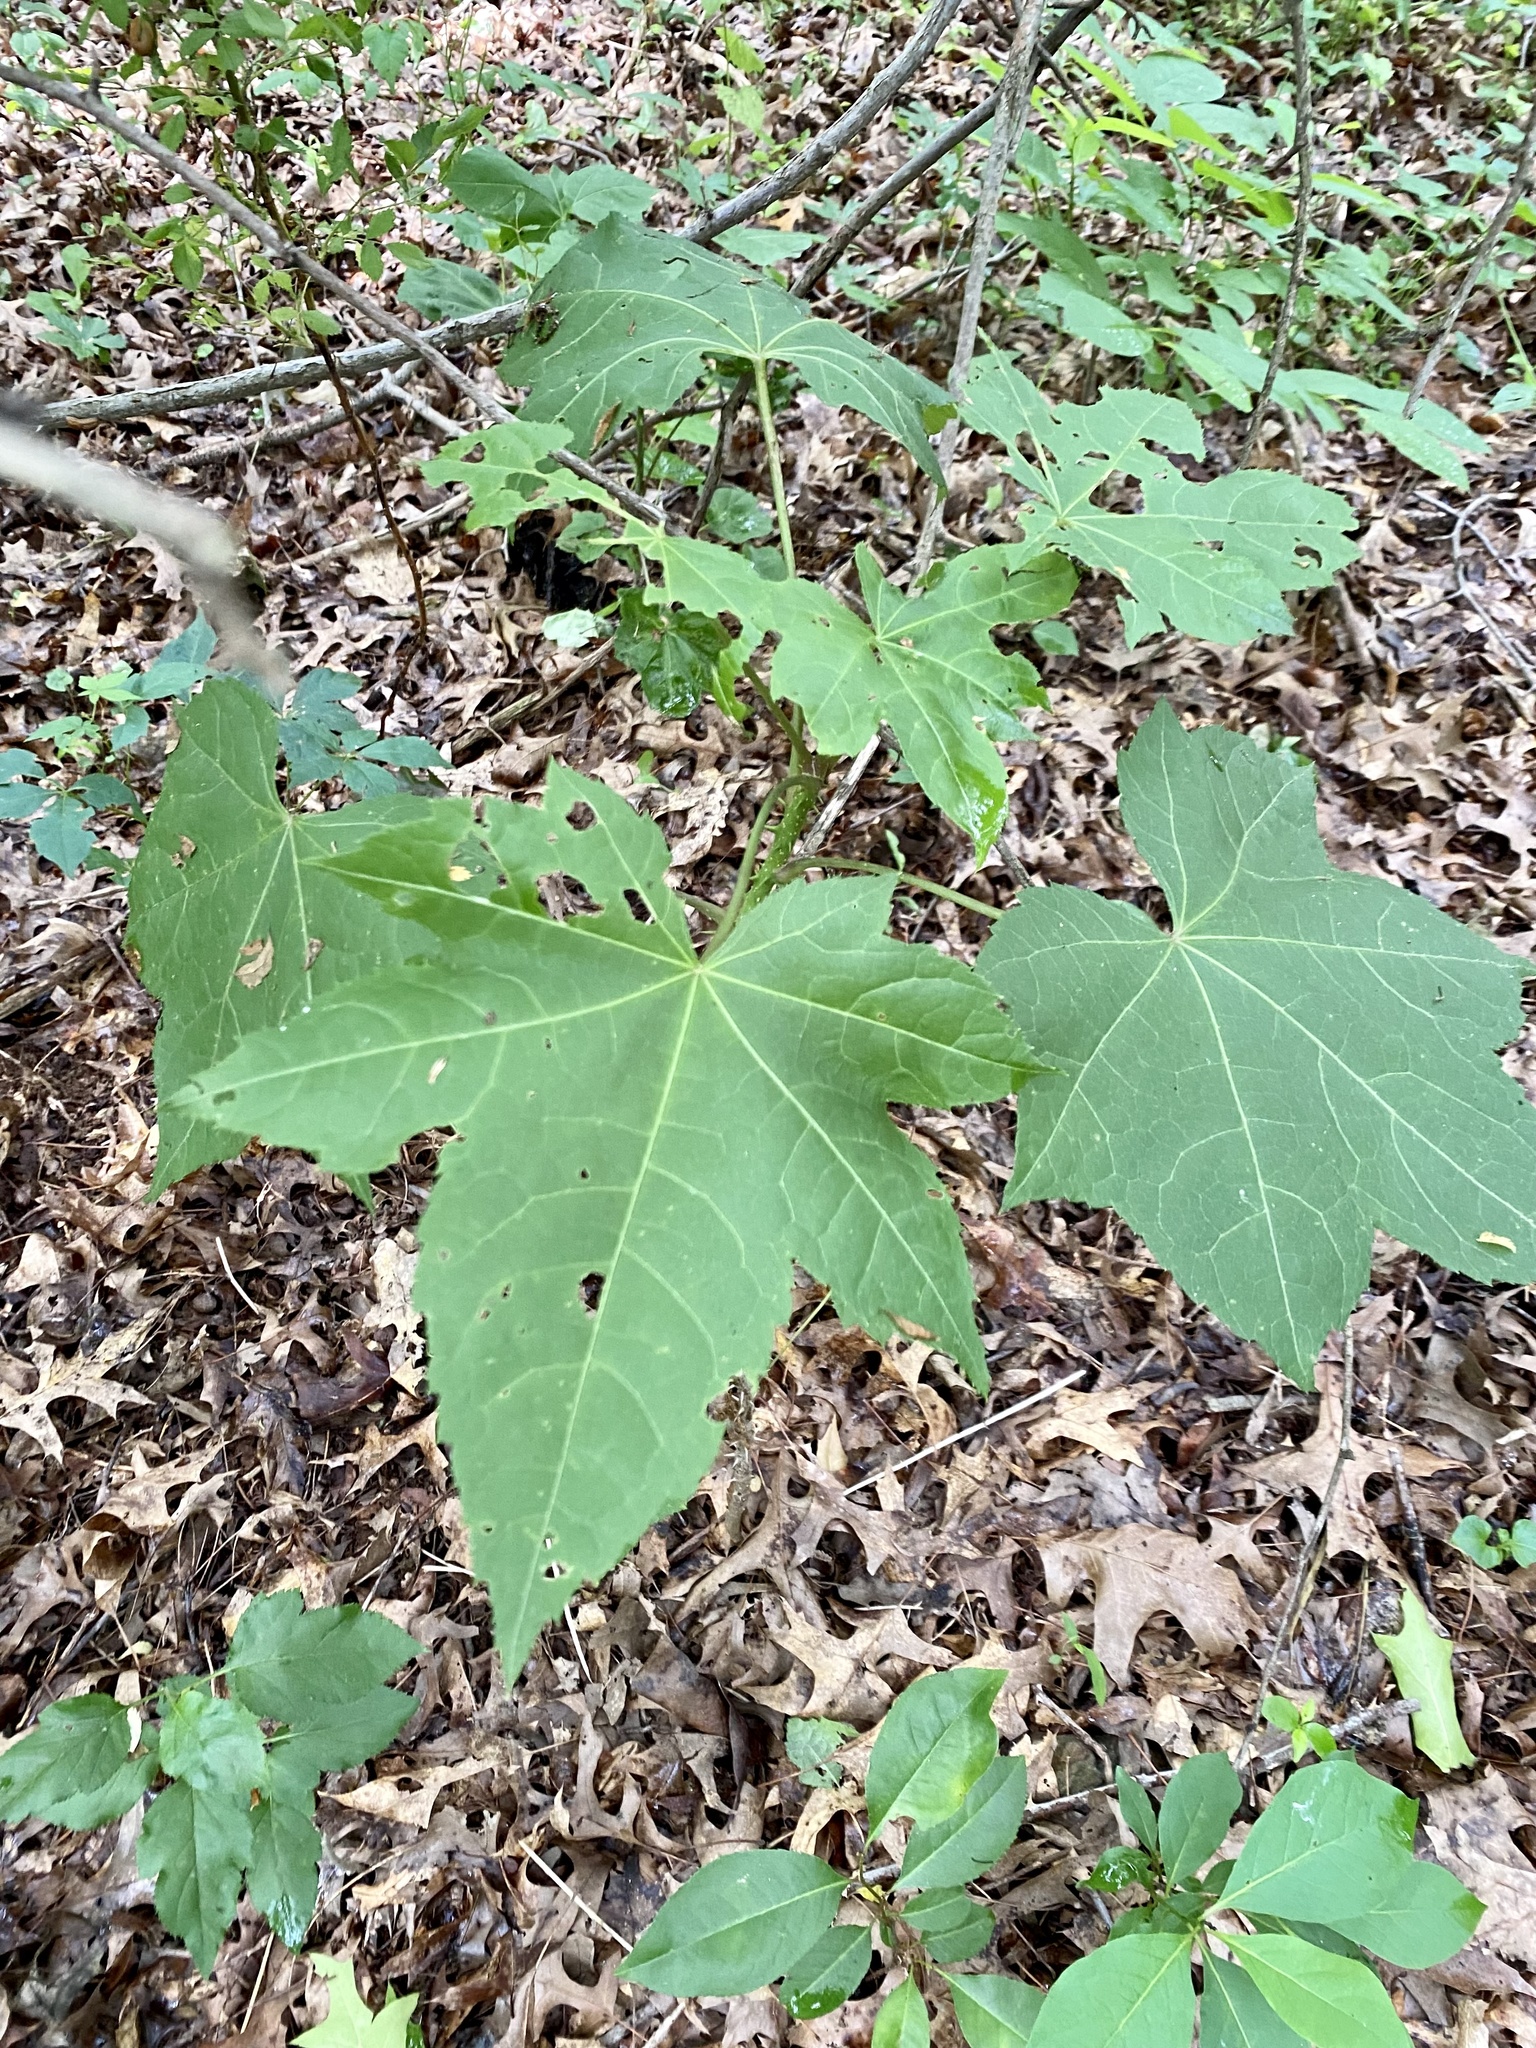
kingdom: Plantae
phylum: Tracheophyta
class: Magnoliopsida
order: Apiales
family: Araliaceae
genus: Kalopanax
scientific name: Kalopanax septemlobus
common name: Castor aralia
